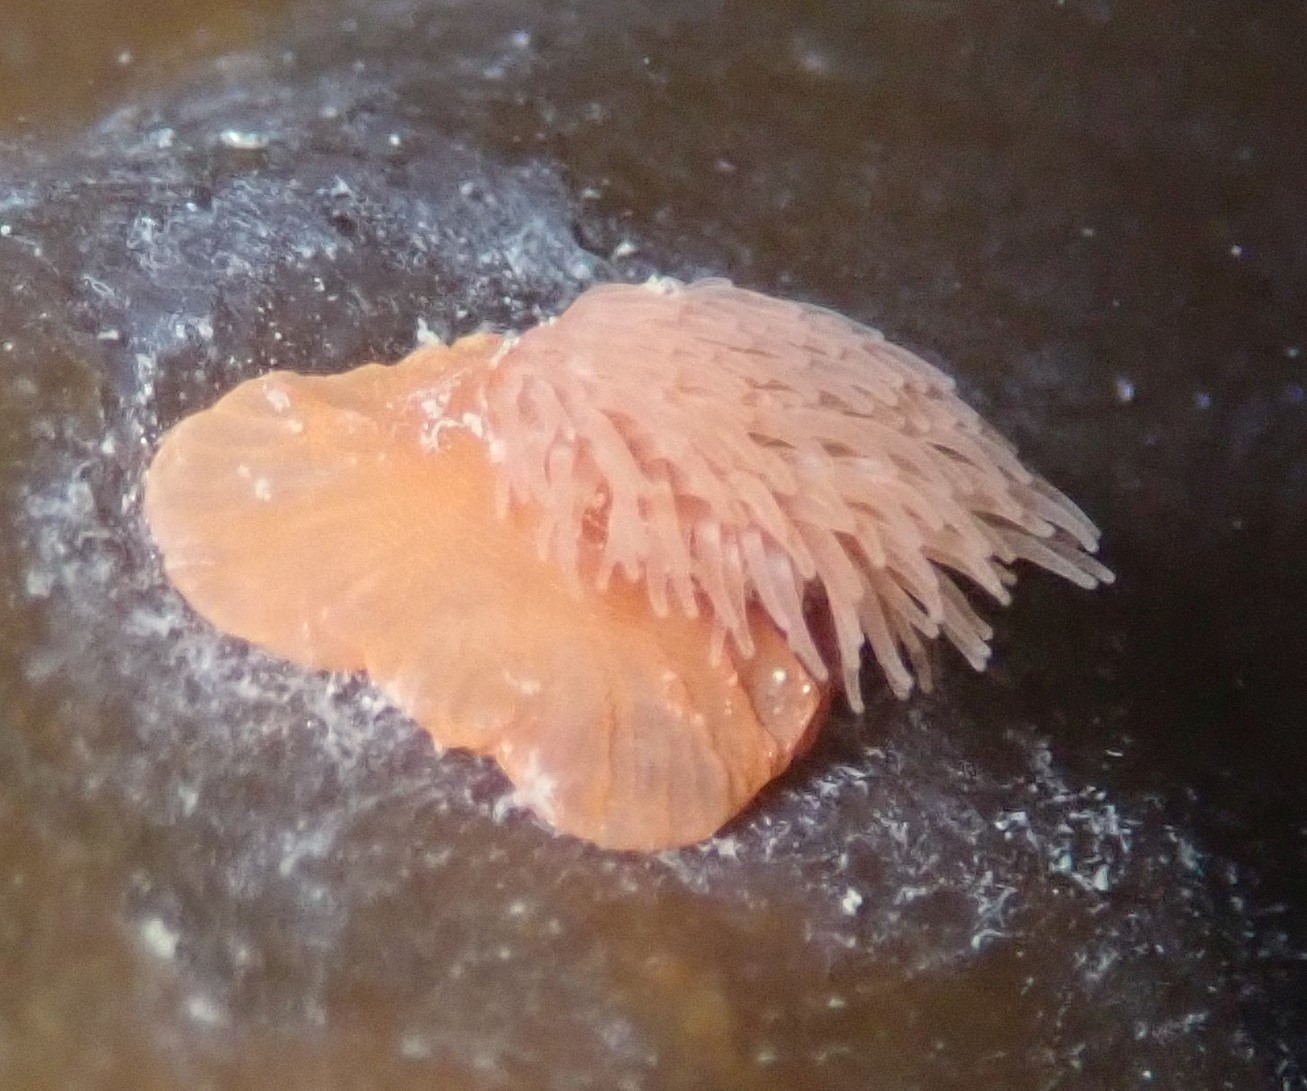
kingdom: Animalia
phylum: Cnidaria
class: Anthozoa
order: Actiniaria
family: Metridiidae
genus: Metridium
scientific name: Metridium senile
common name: Clonal plumose anemone
